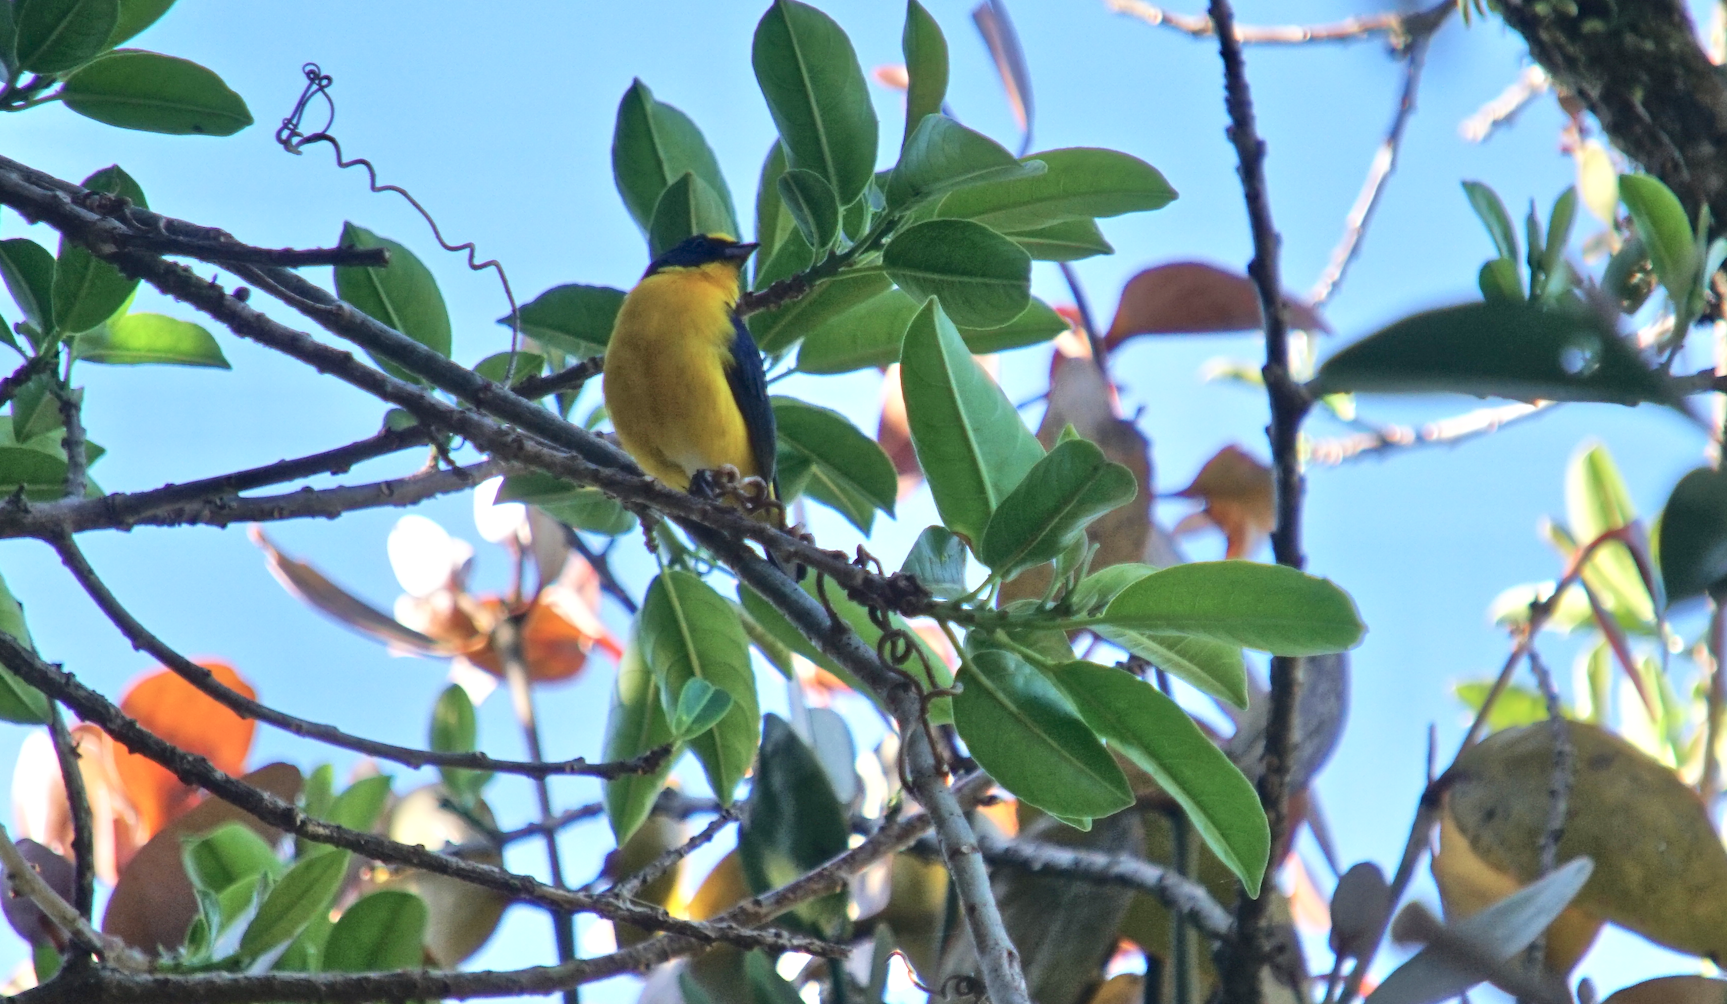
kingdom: Animalia
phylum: Chordata
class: Aves
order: Passeriformes
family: Fringillidae
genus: Euphonia
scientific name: Euphonia hirundinacea
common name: Yellow-throated euphonia
